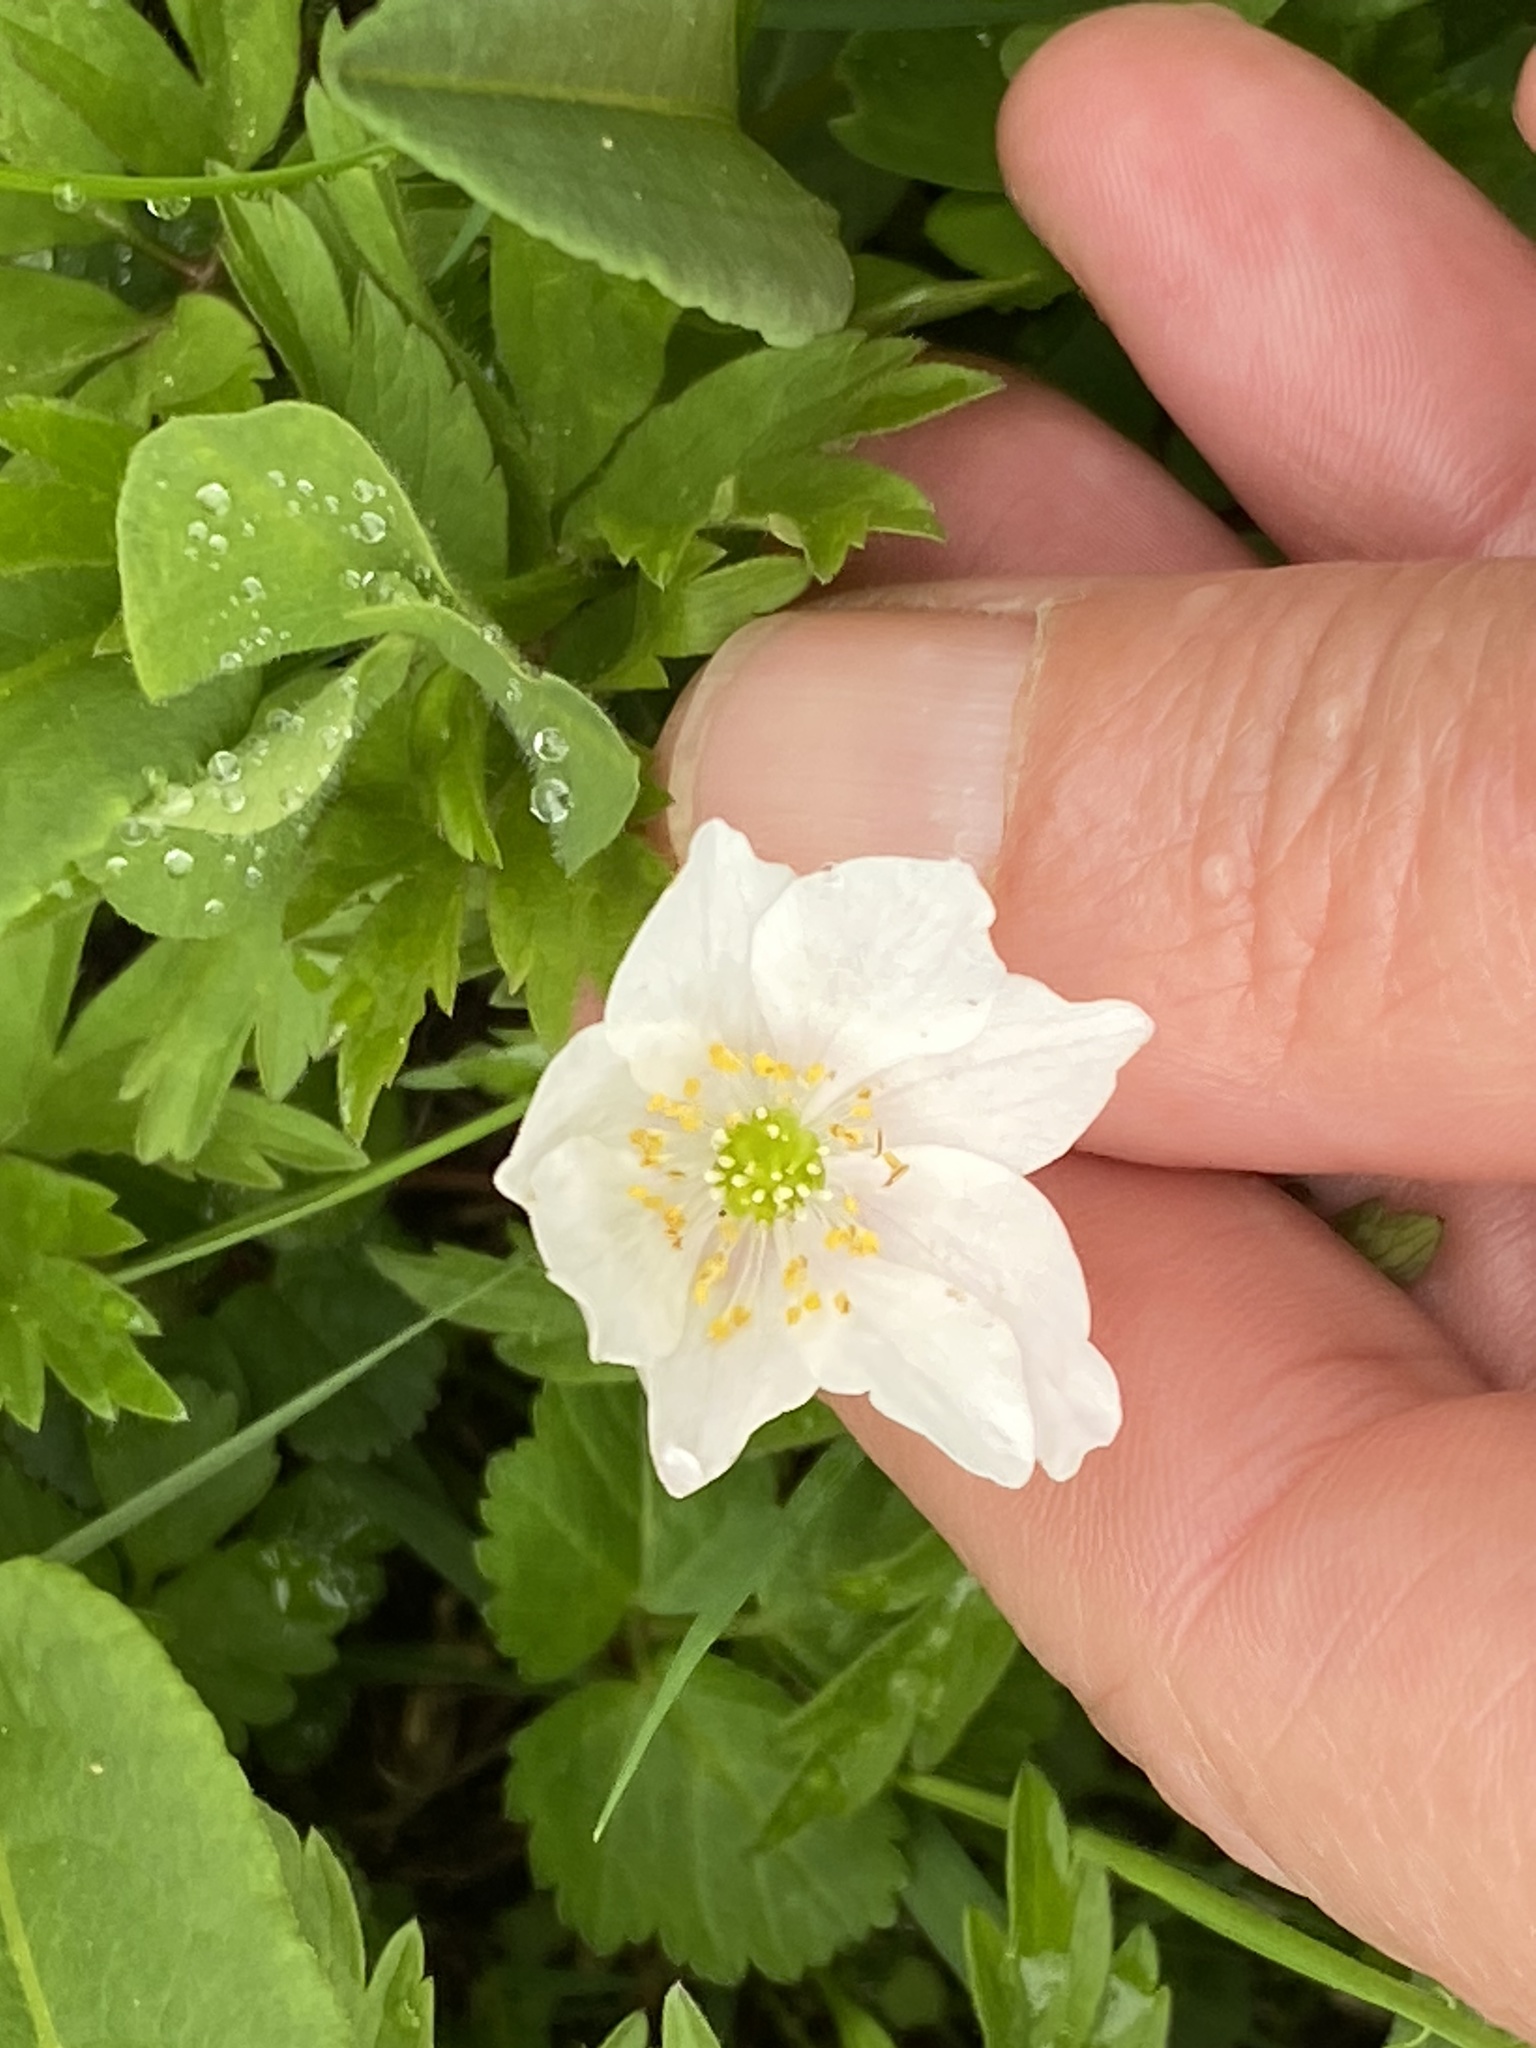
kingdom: Plantae
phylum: Tracheophyta
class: Magnoliopsida
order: Ranunculales
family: Ranunculaceae
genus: Anemone
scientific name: Anemone nemorosa
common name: Wood anemone
